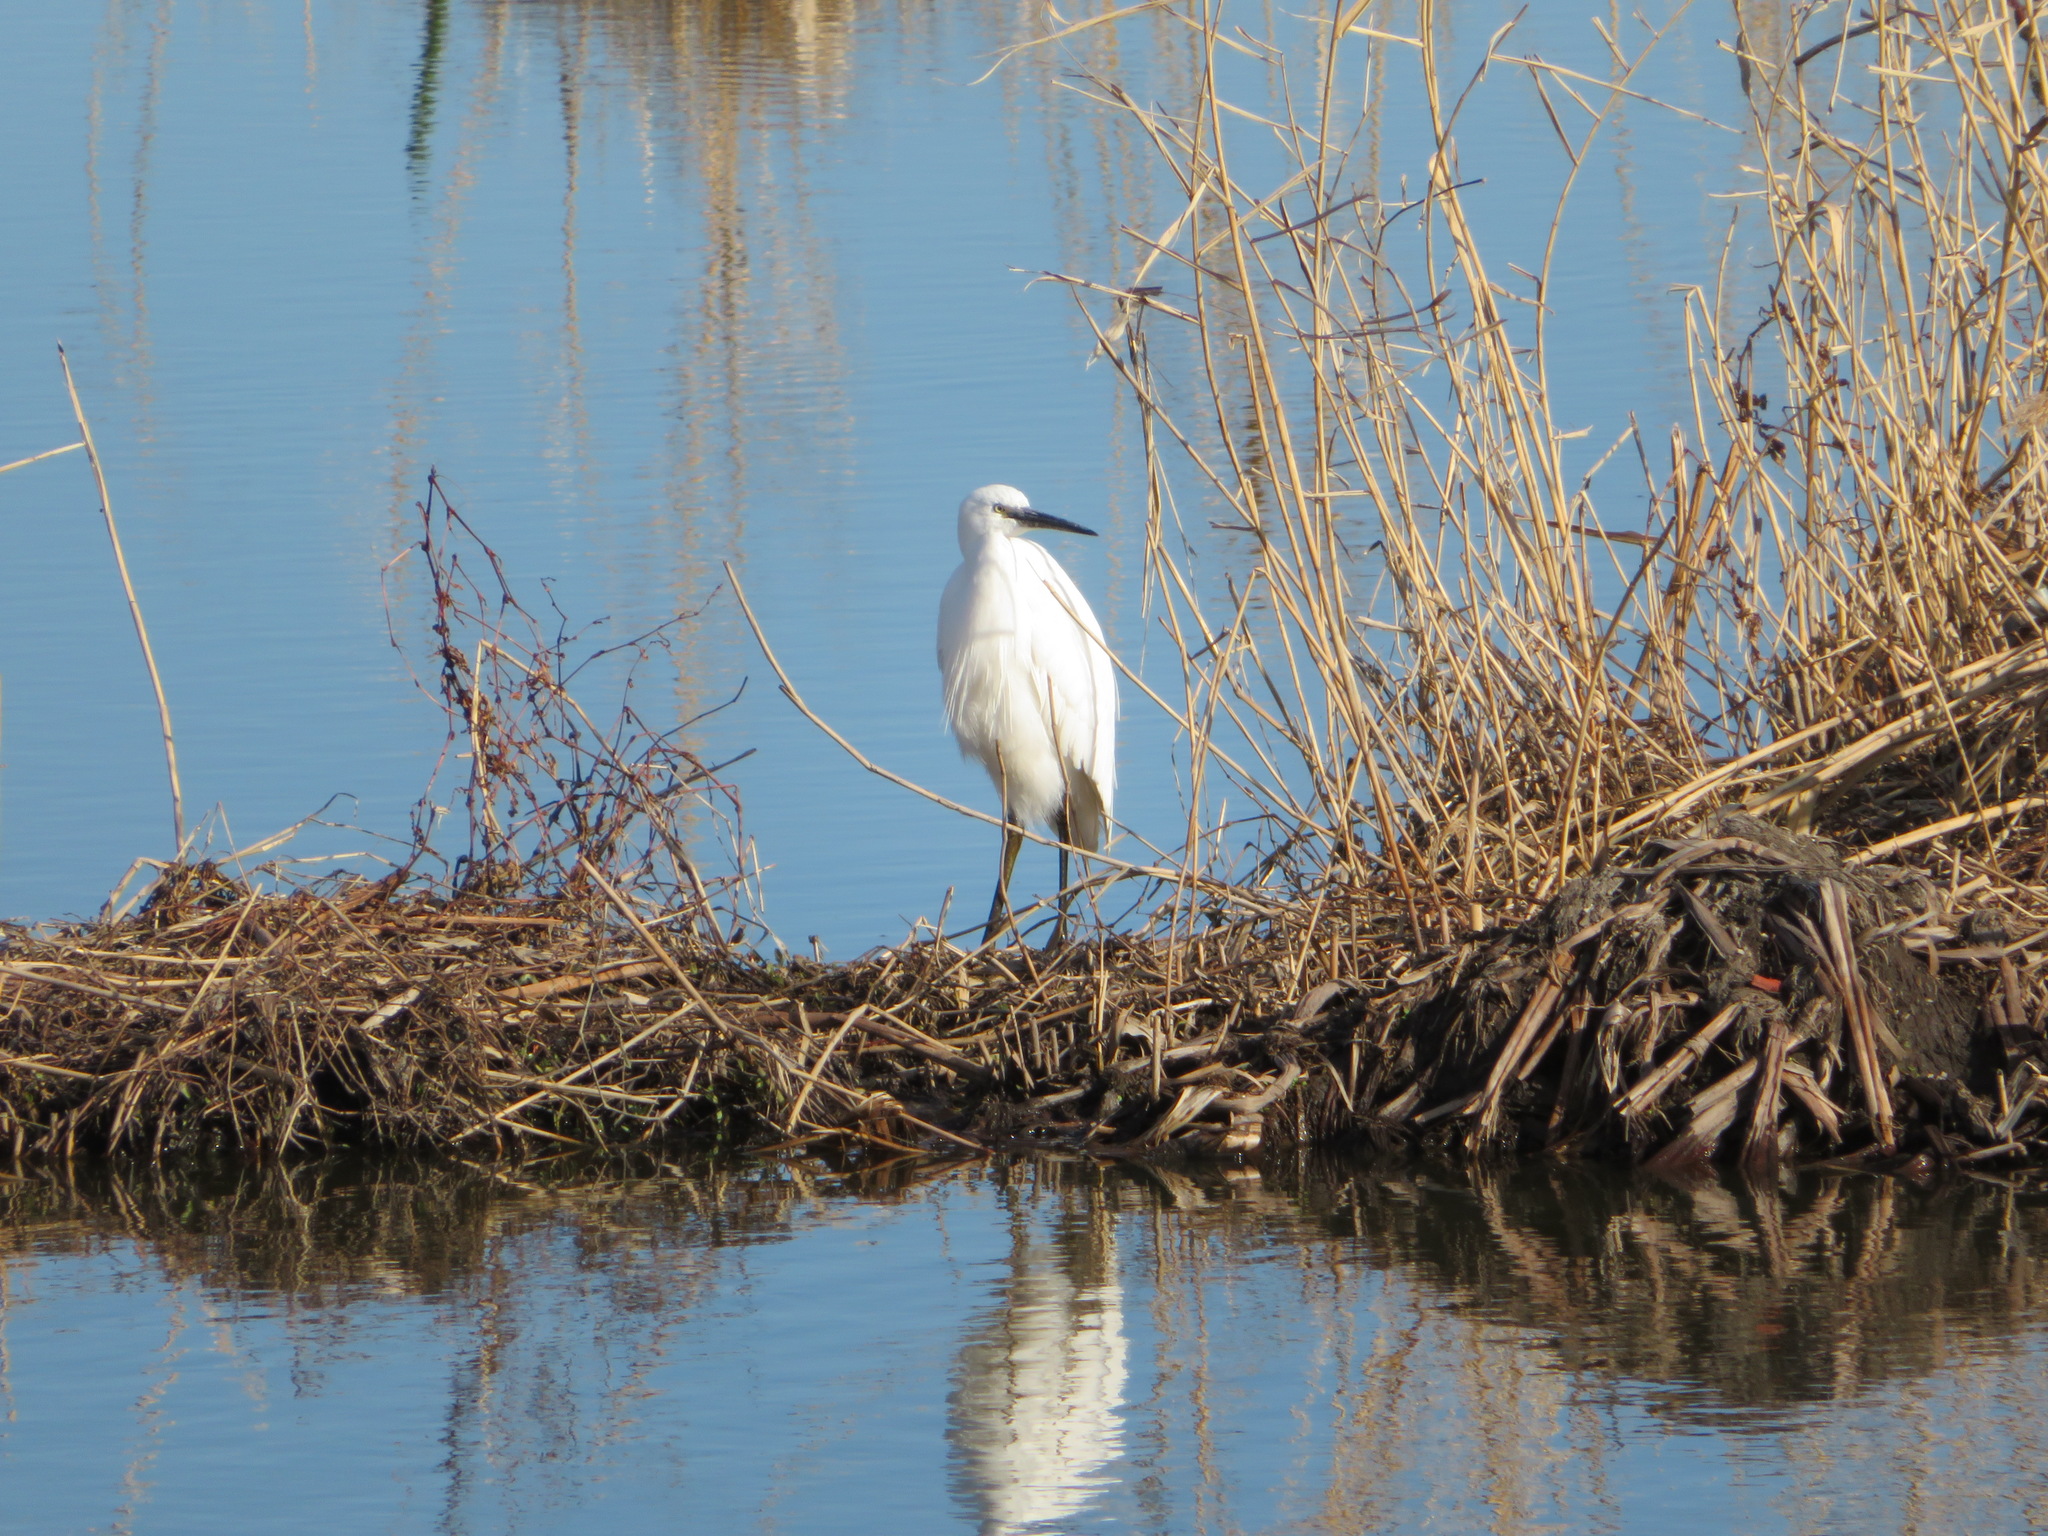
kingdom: Animalia
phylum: Chordata
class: Aves
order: Pelecaniformes
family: Ardeidae
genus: Egretta
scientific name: Egretta garzetta
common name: Little egret
